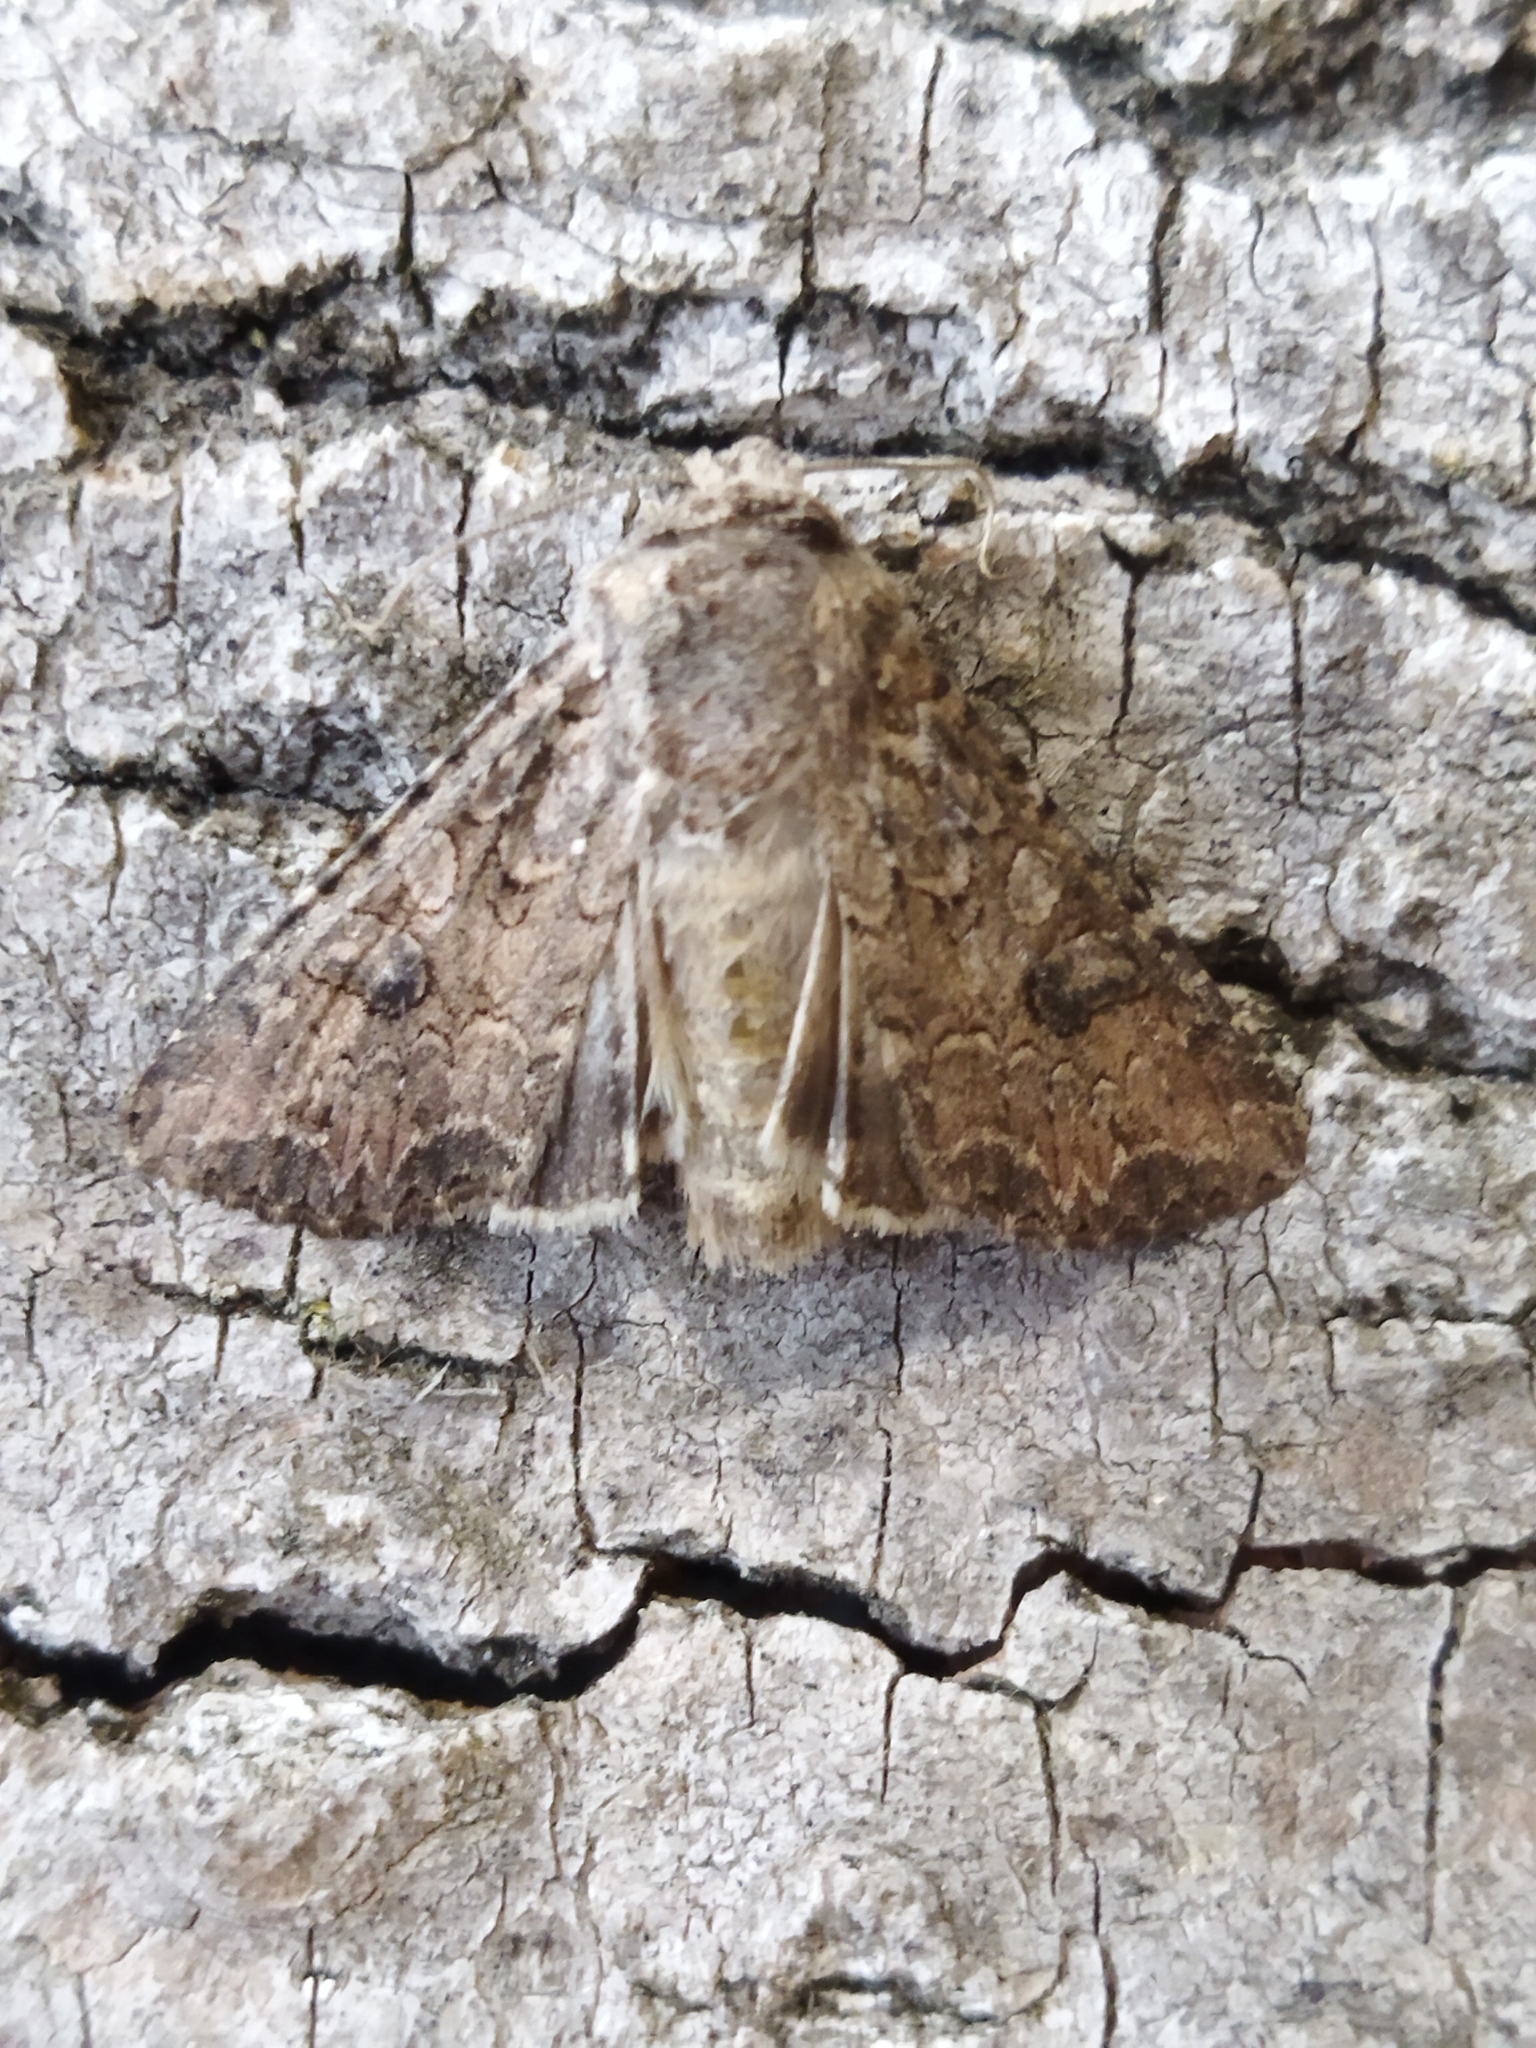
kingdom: Animalia
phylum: Arthropoda
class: Insecta
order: Lepidoptera
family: Noctuidae
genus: Anarta
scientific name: Anarta trifolii
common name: Clover cutworm moth
